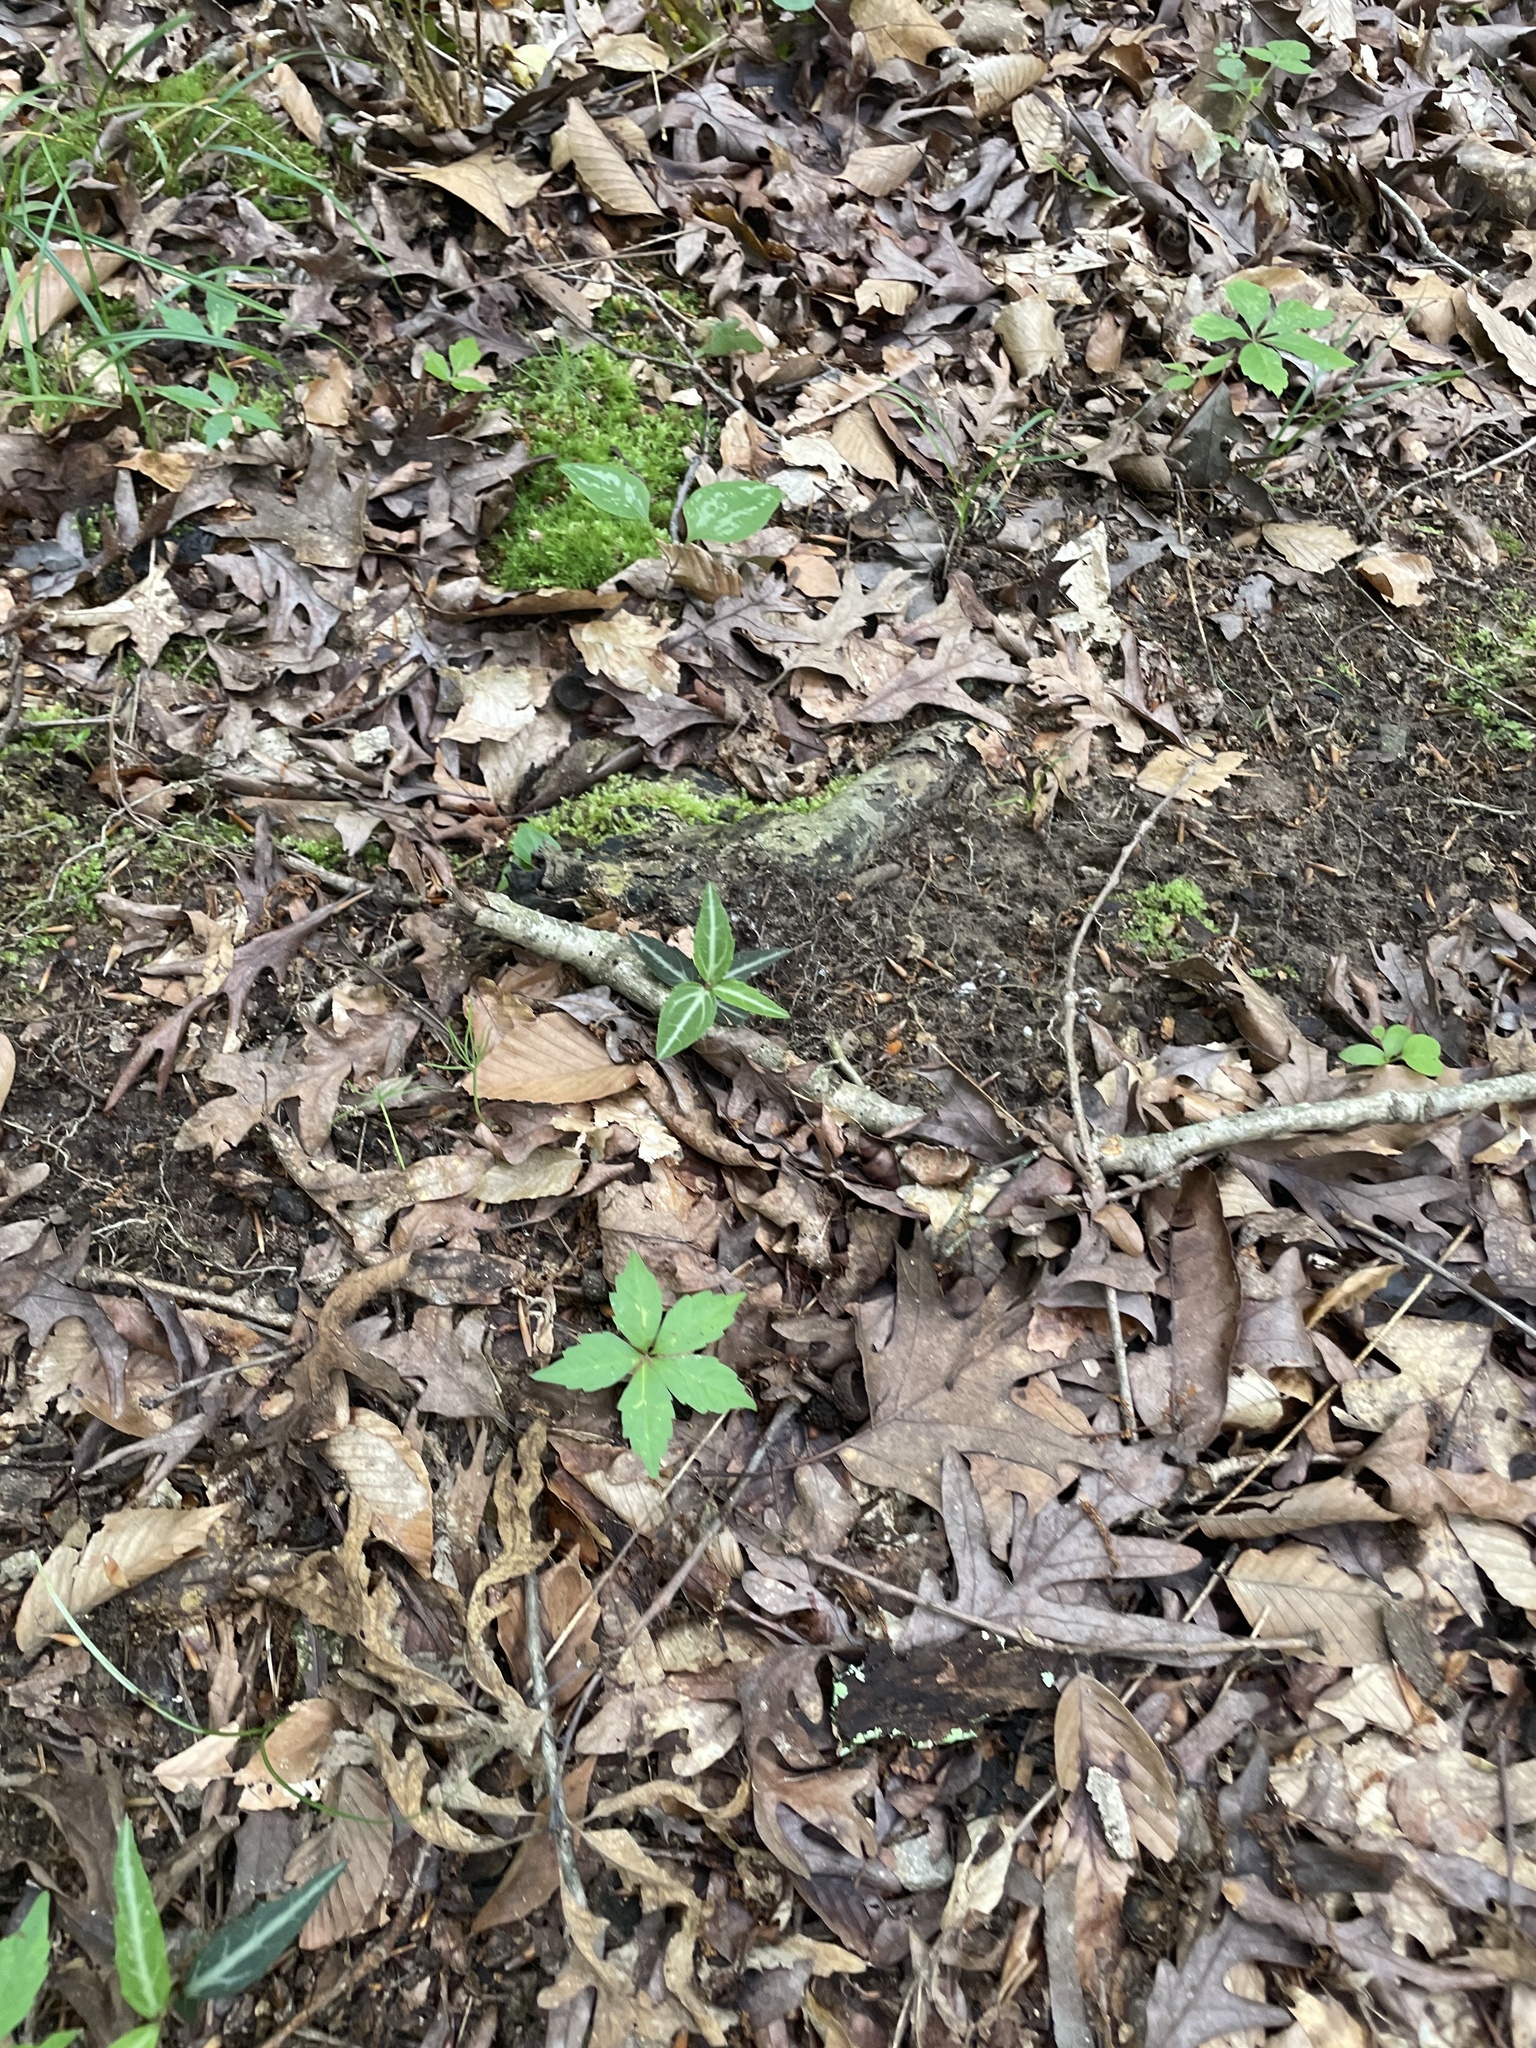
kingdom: Plantae
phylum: Tracheophyta
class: Magnoliopsida
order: Ericales
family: Ericaceae
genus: Chimaphila
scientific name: Chimaphila maculata
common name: Spotted pipsissewa
